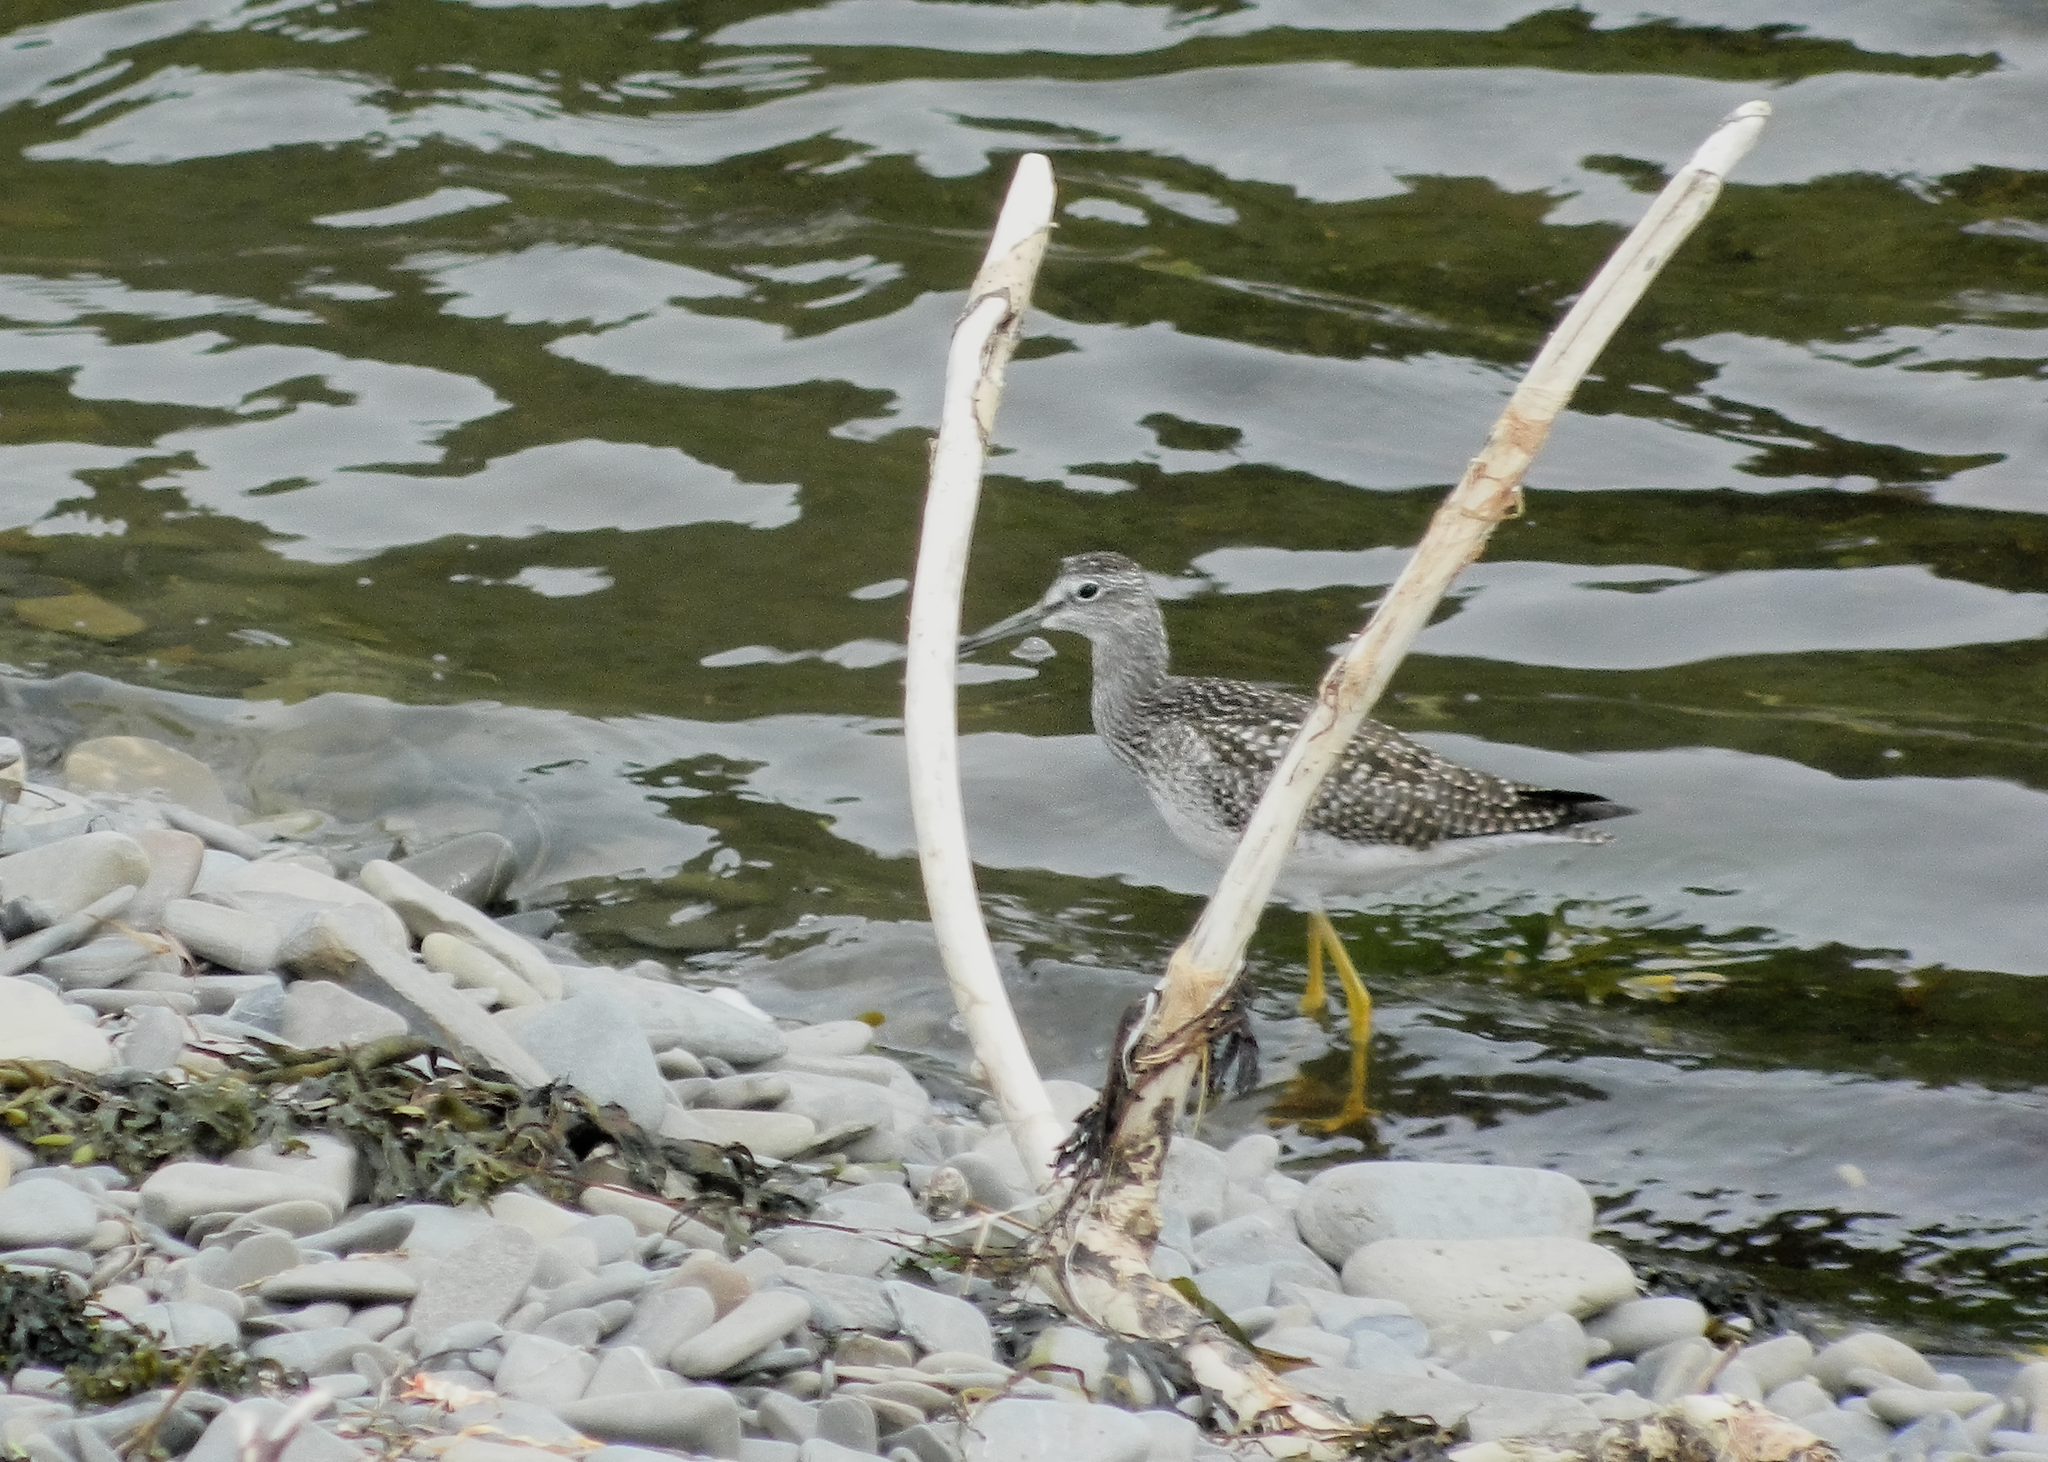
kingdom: Animalia
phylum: Chordata
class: Aves
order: Charadriiformes
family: Scolopacidae
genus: Tringa
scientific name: Tringa melanoleuca
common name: Greater yellowlegs
